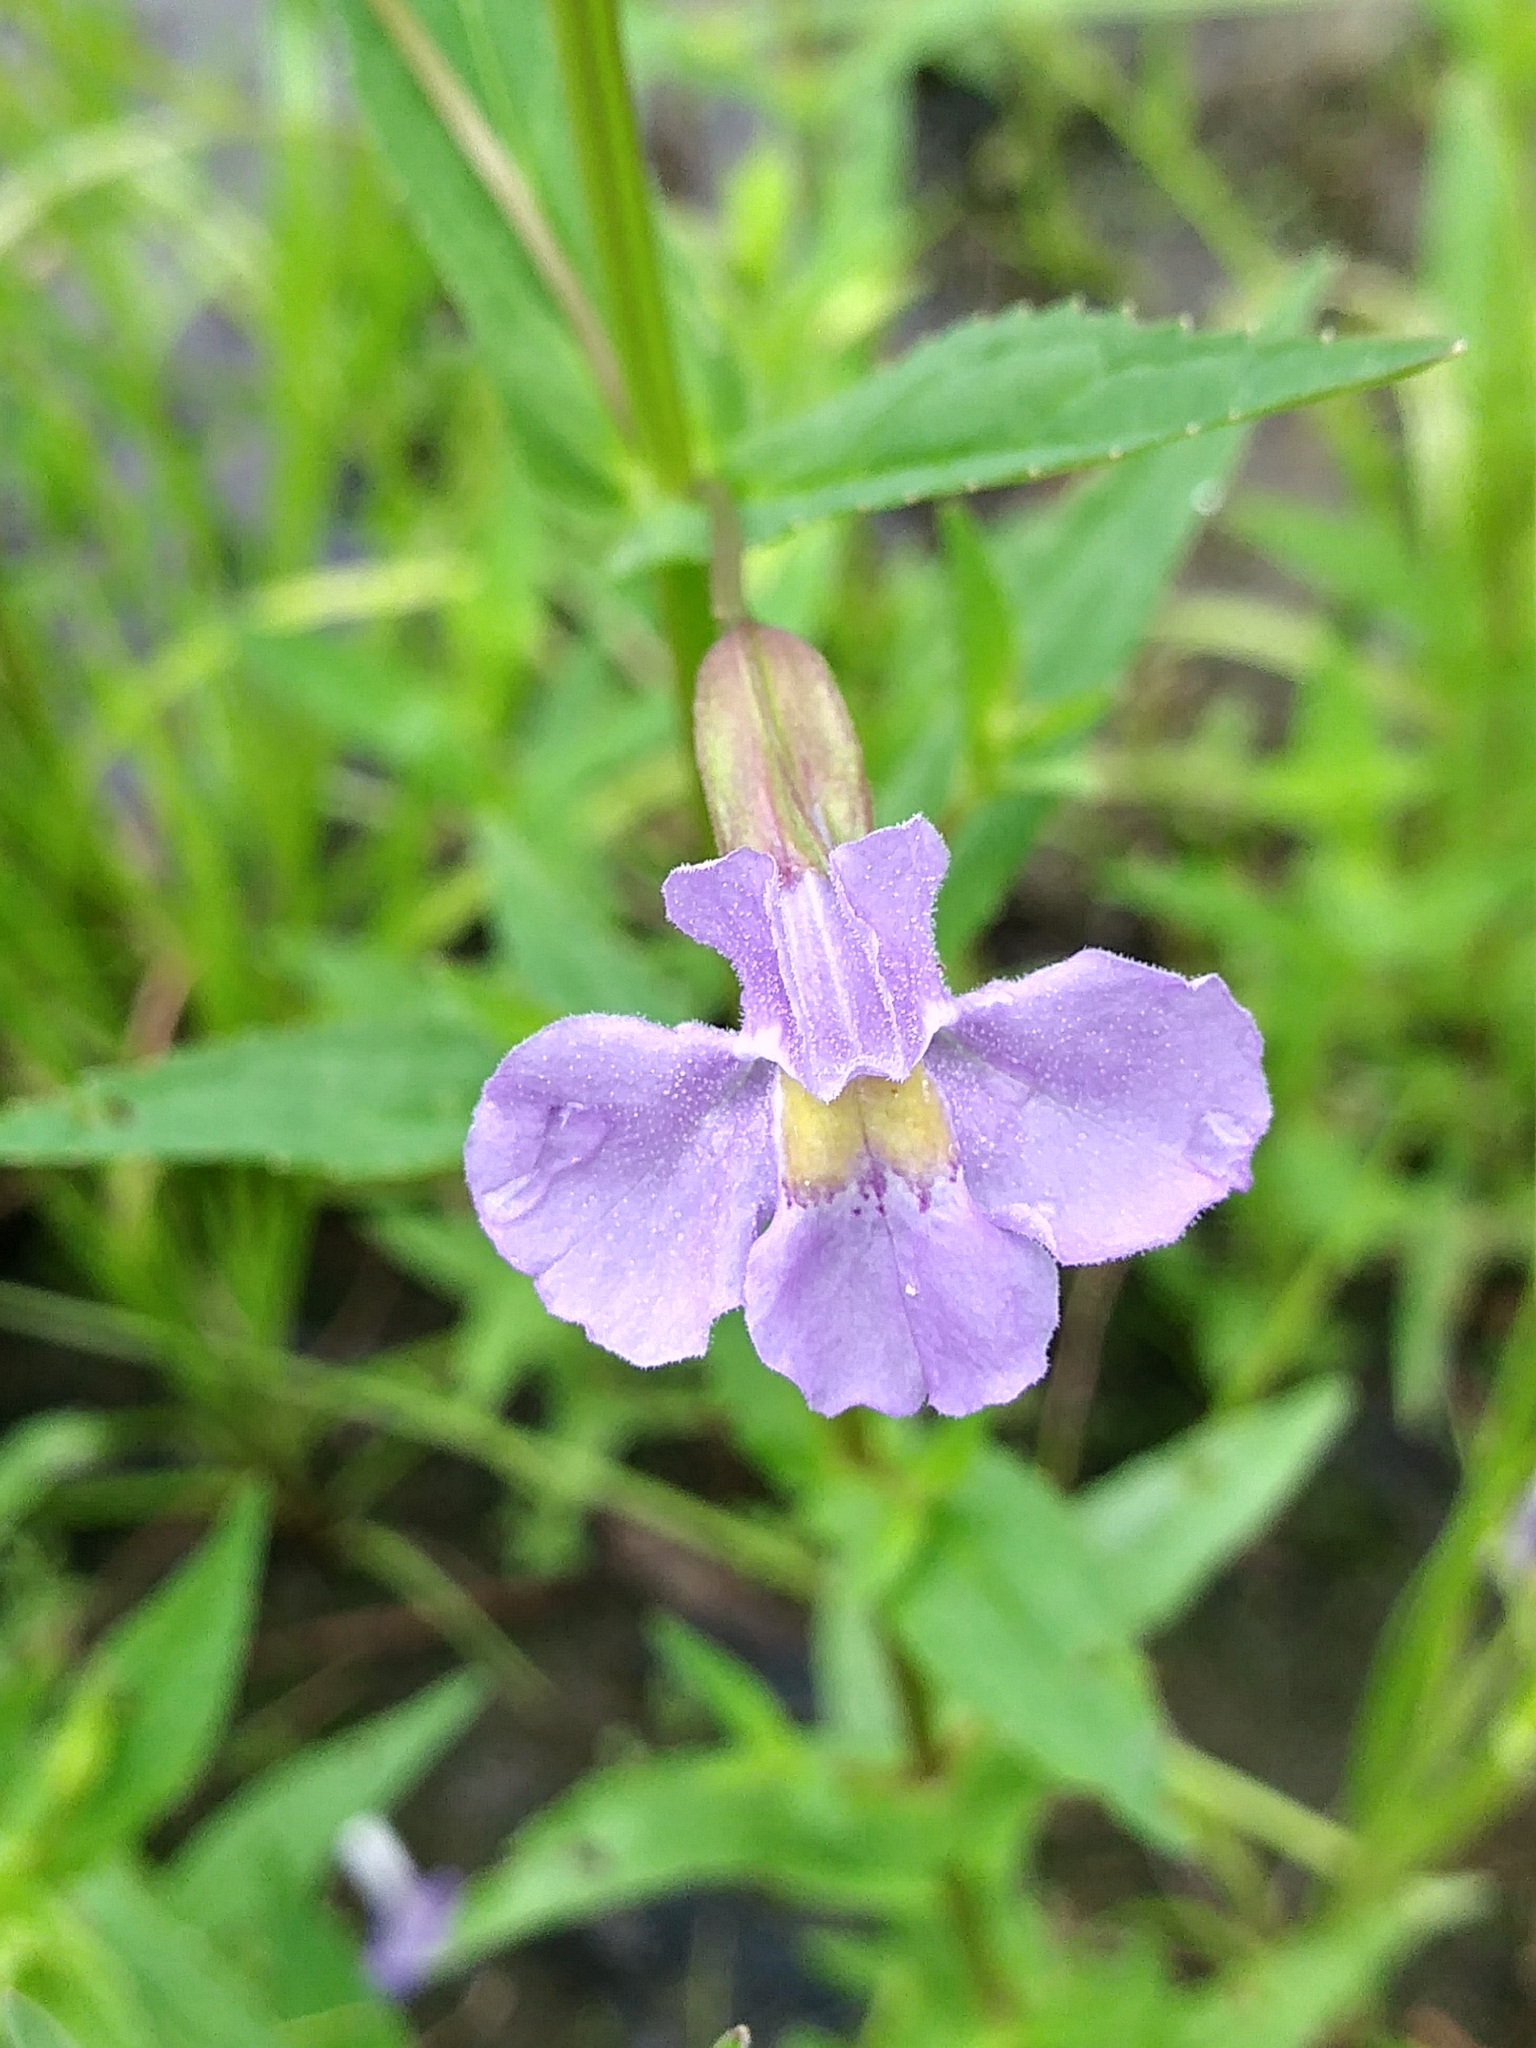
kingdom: Plantae
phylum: Tracheophyta
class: Magnoliopsida
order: Lamiales
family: Phrymaceae
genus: Mimulus
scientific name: Mimulus ringens
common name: Allegheny monkeyflower
